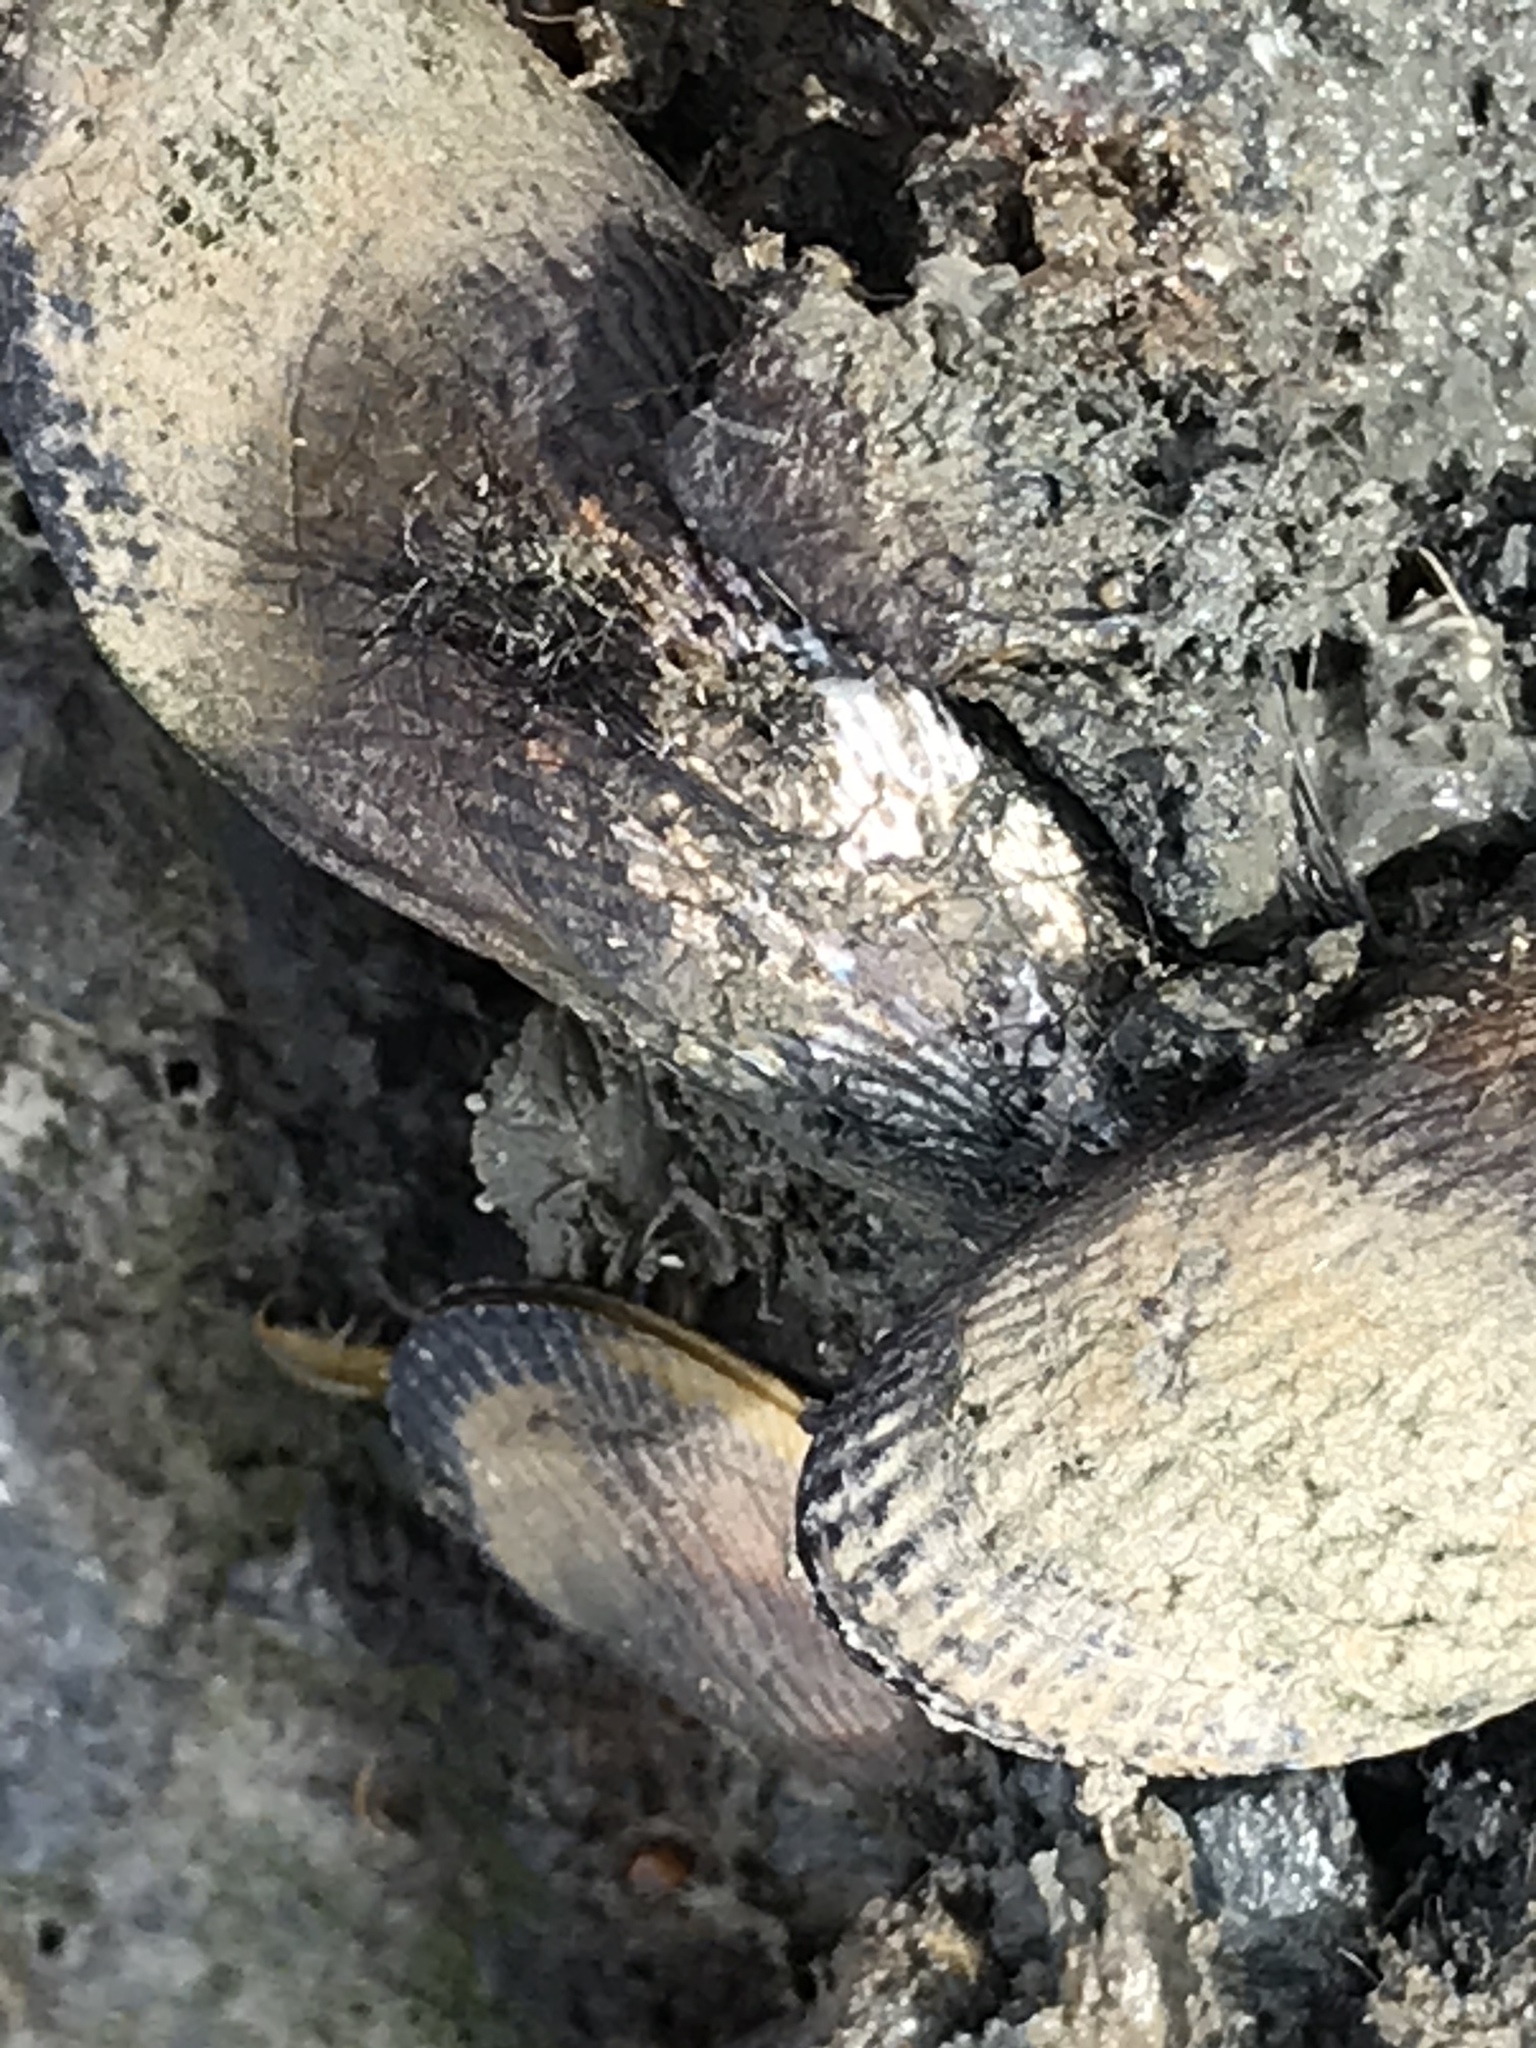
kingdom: Animalia
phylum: Mollusca
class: Bivalvia
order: Mytilida
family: Mytilidae
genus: Geukensia
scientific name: Geukensia demissa
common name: Ribbed mussel
